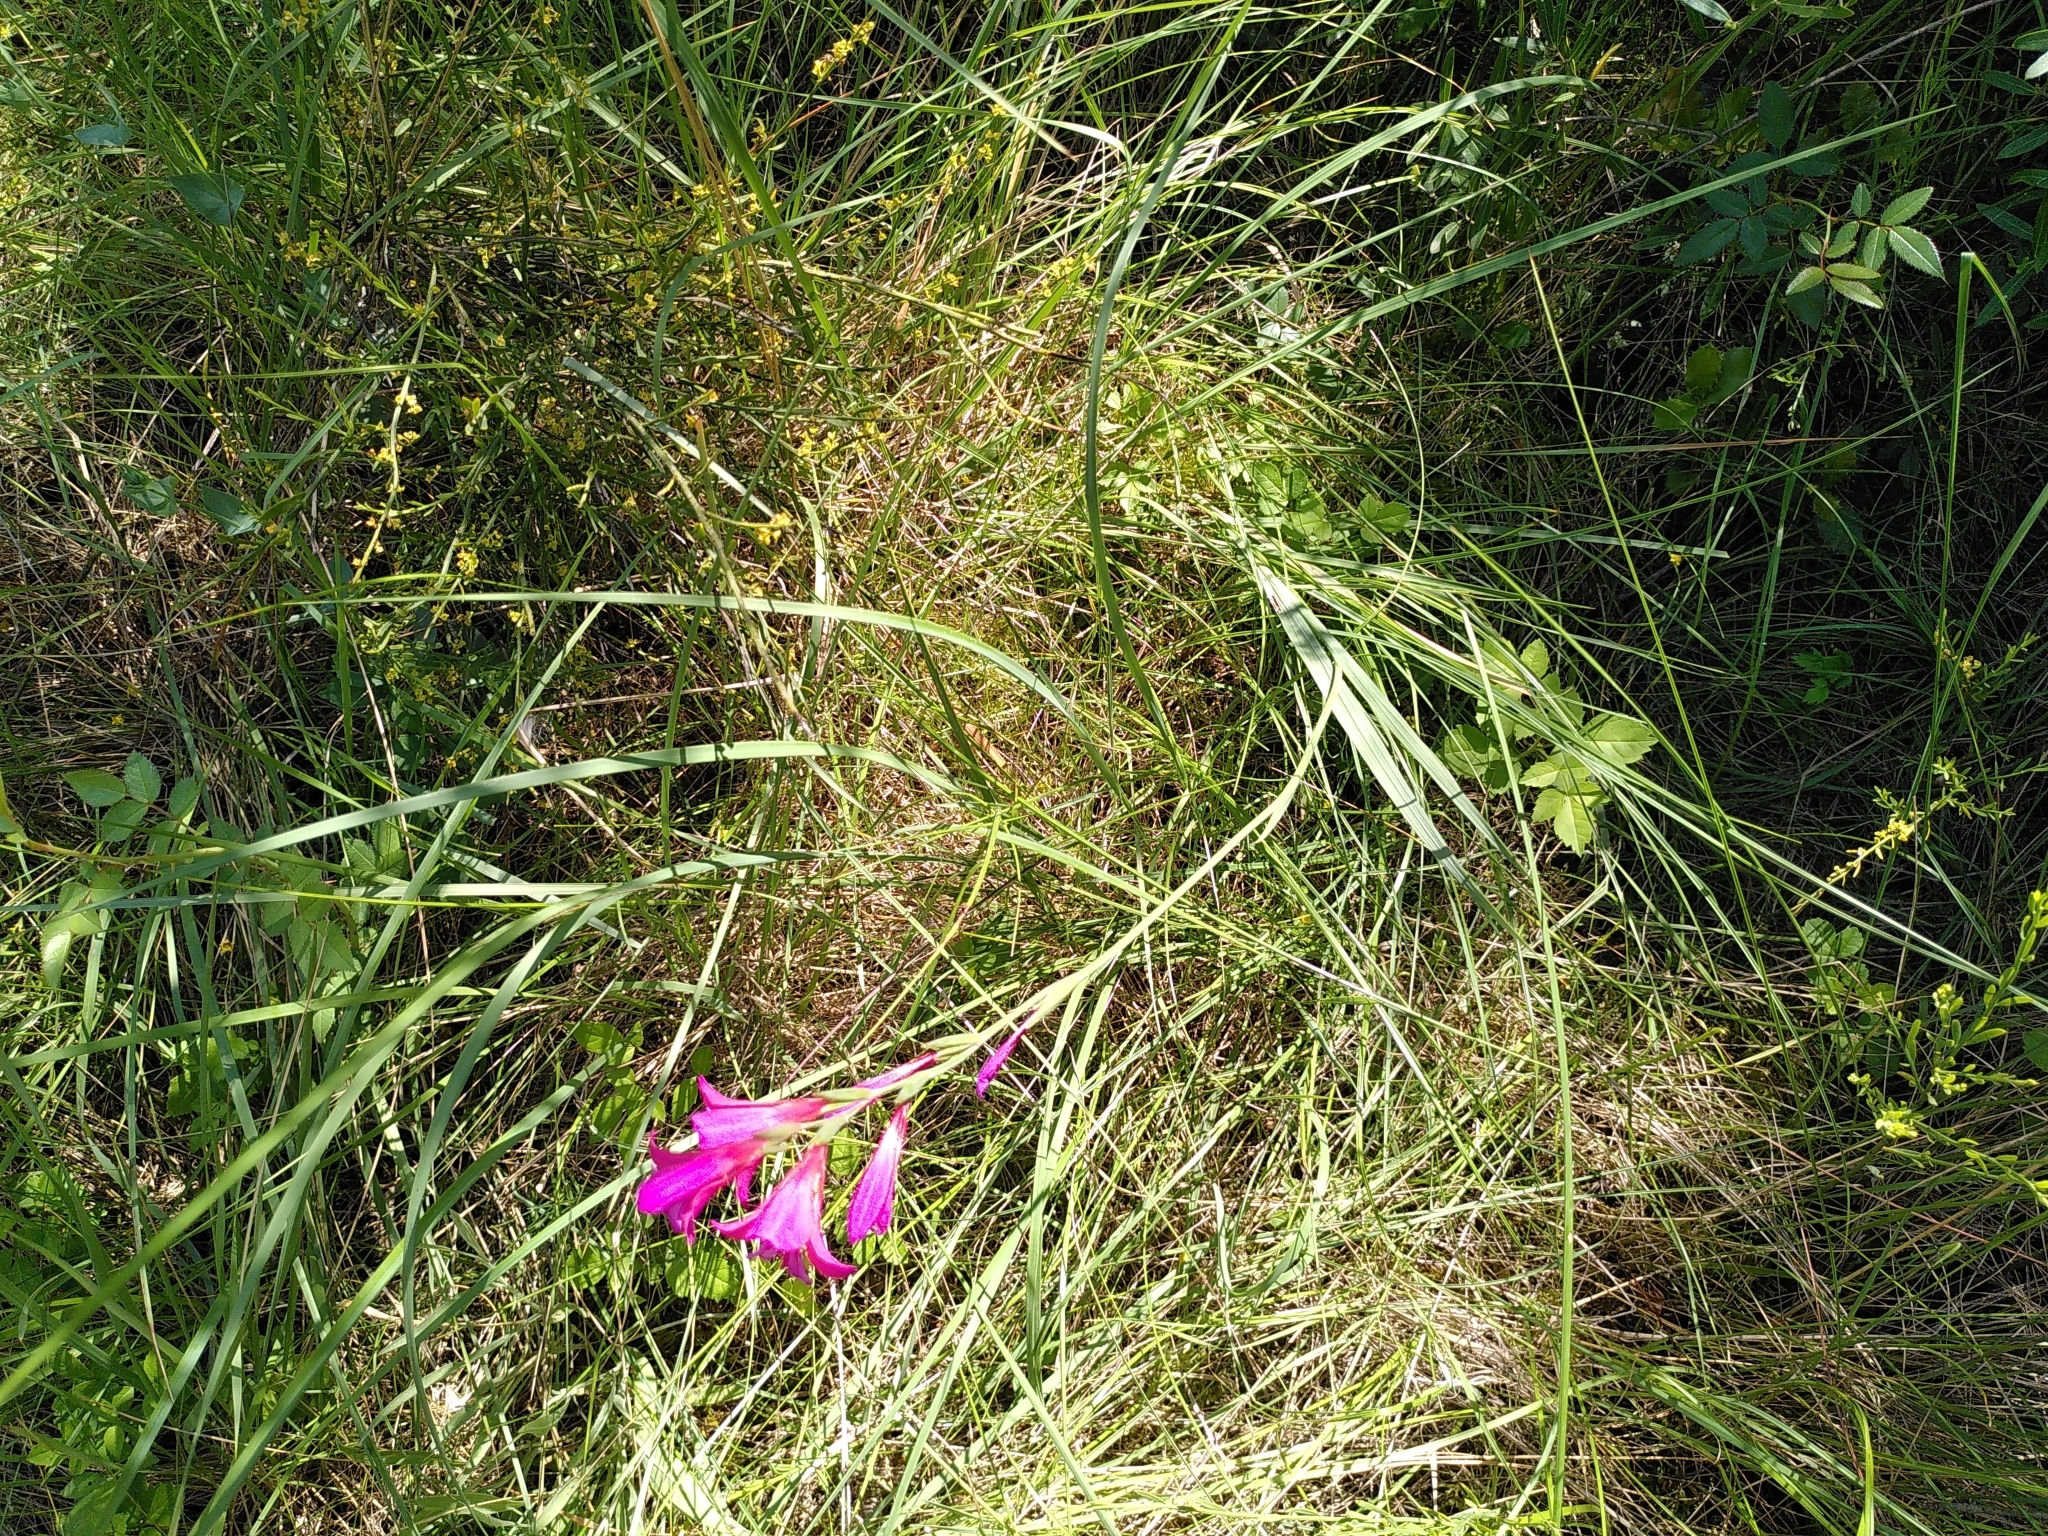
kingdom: Plantae
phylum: Tracheophyta
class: Liliopsida
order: Asparagales
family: Iridaceae
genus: Gladiolus
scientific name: Gladiolus dubius
